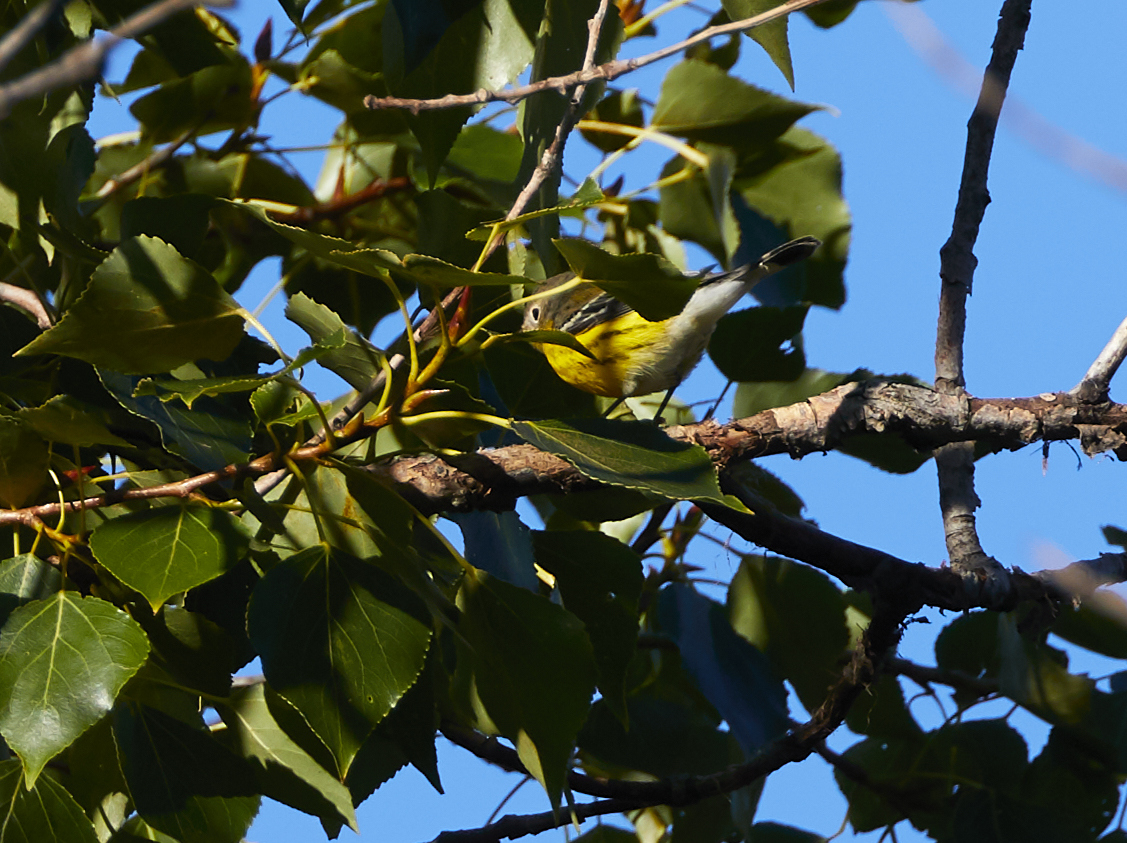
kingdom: Animalia
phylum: Chordata
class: Aves
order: Passeriformes
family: Parulidae
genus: Setophaga
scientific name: Setophaga magnolia
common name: Magnolia warbler
